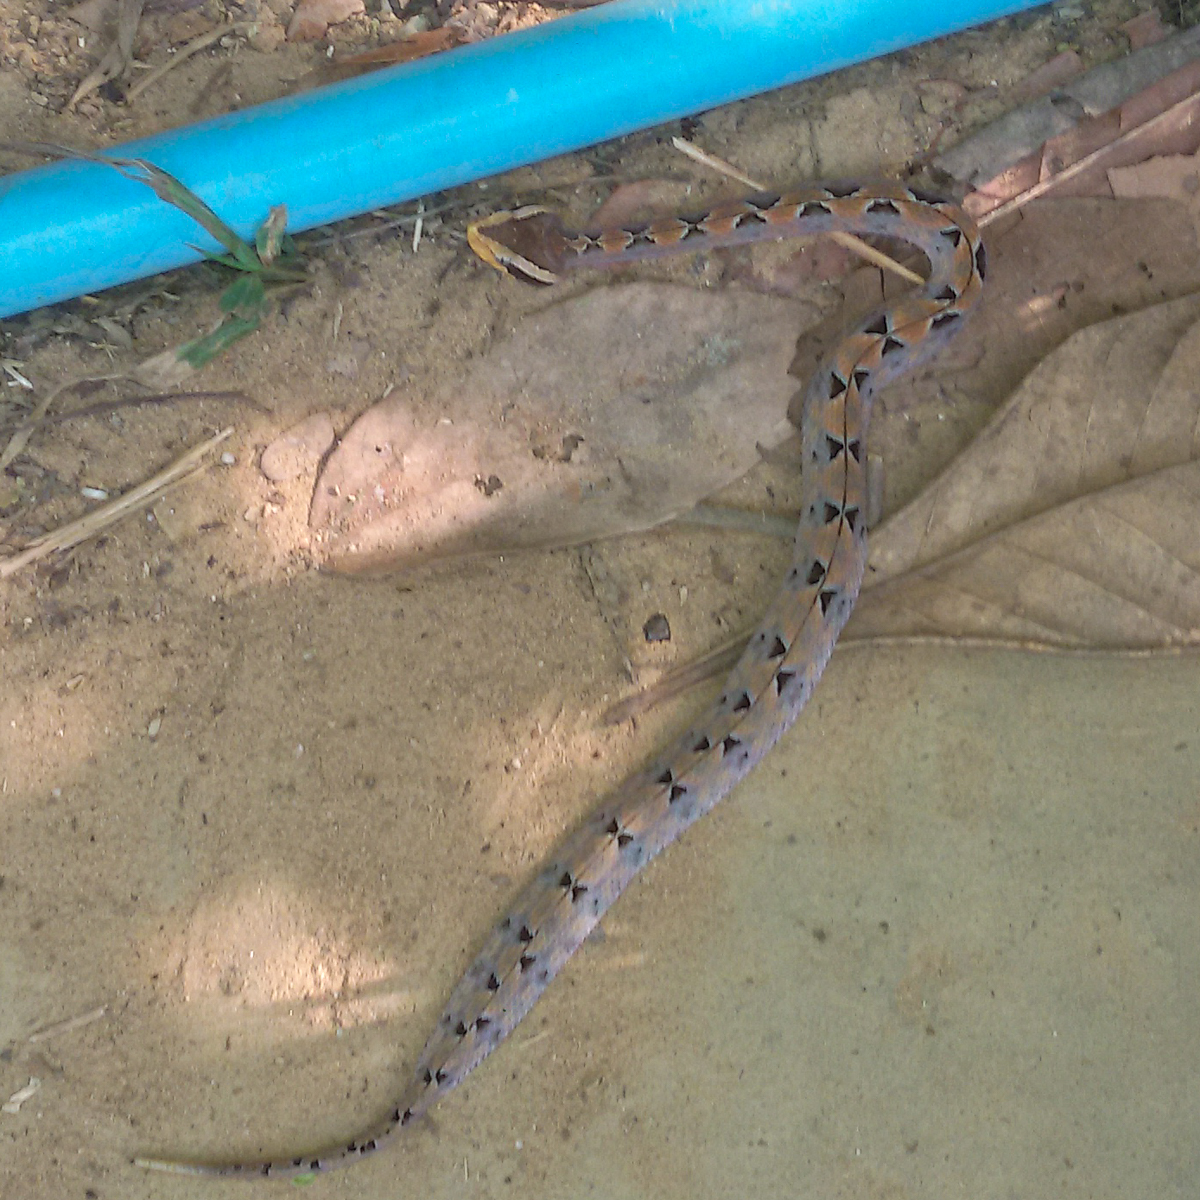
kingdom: Animalia
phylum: Chordata
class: Squamata
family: Viperidae
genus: Calloselasma
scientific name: Calloselasma rhodostoma
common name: Malayan pit viper
